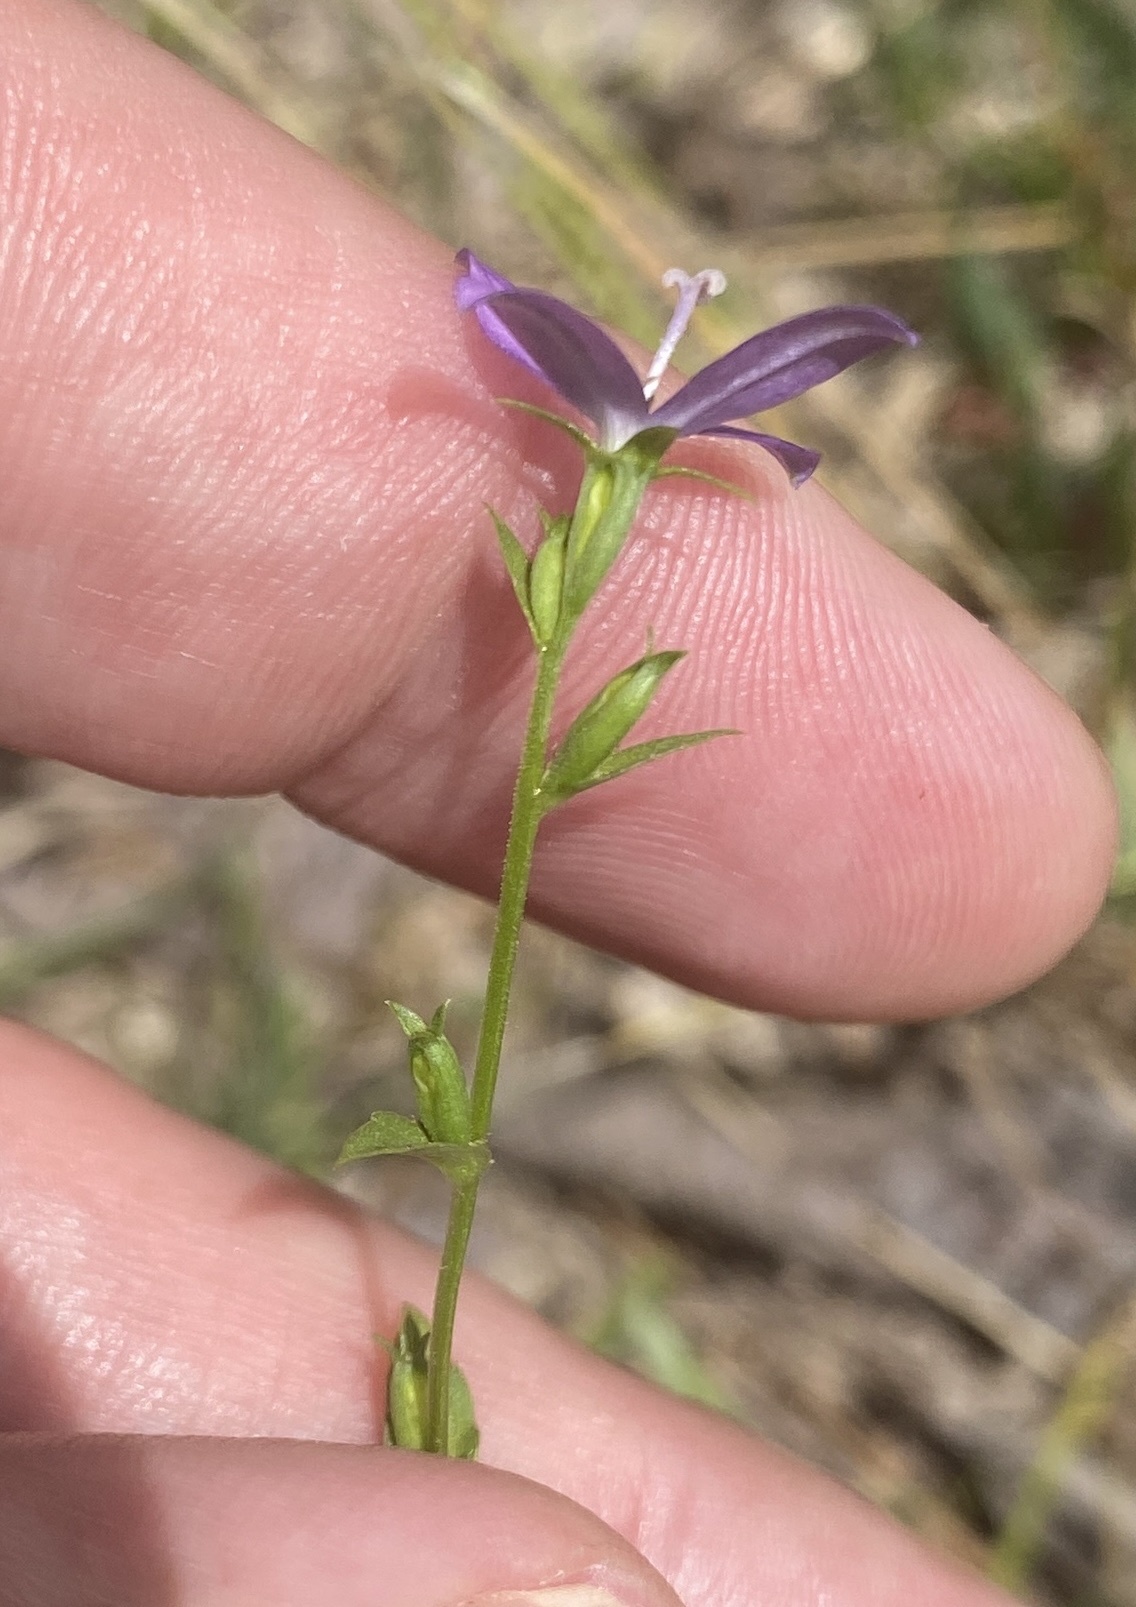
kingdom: Plantae
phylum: Tracheophyta
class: Magnoliopsida
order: Asterales
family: Campanulaceae
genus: Triodanis
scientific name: Triodanis biflora
